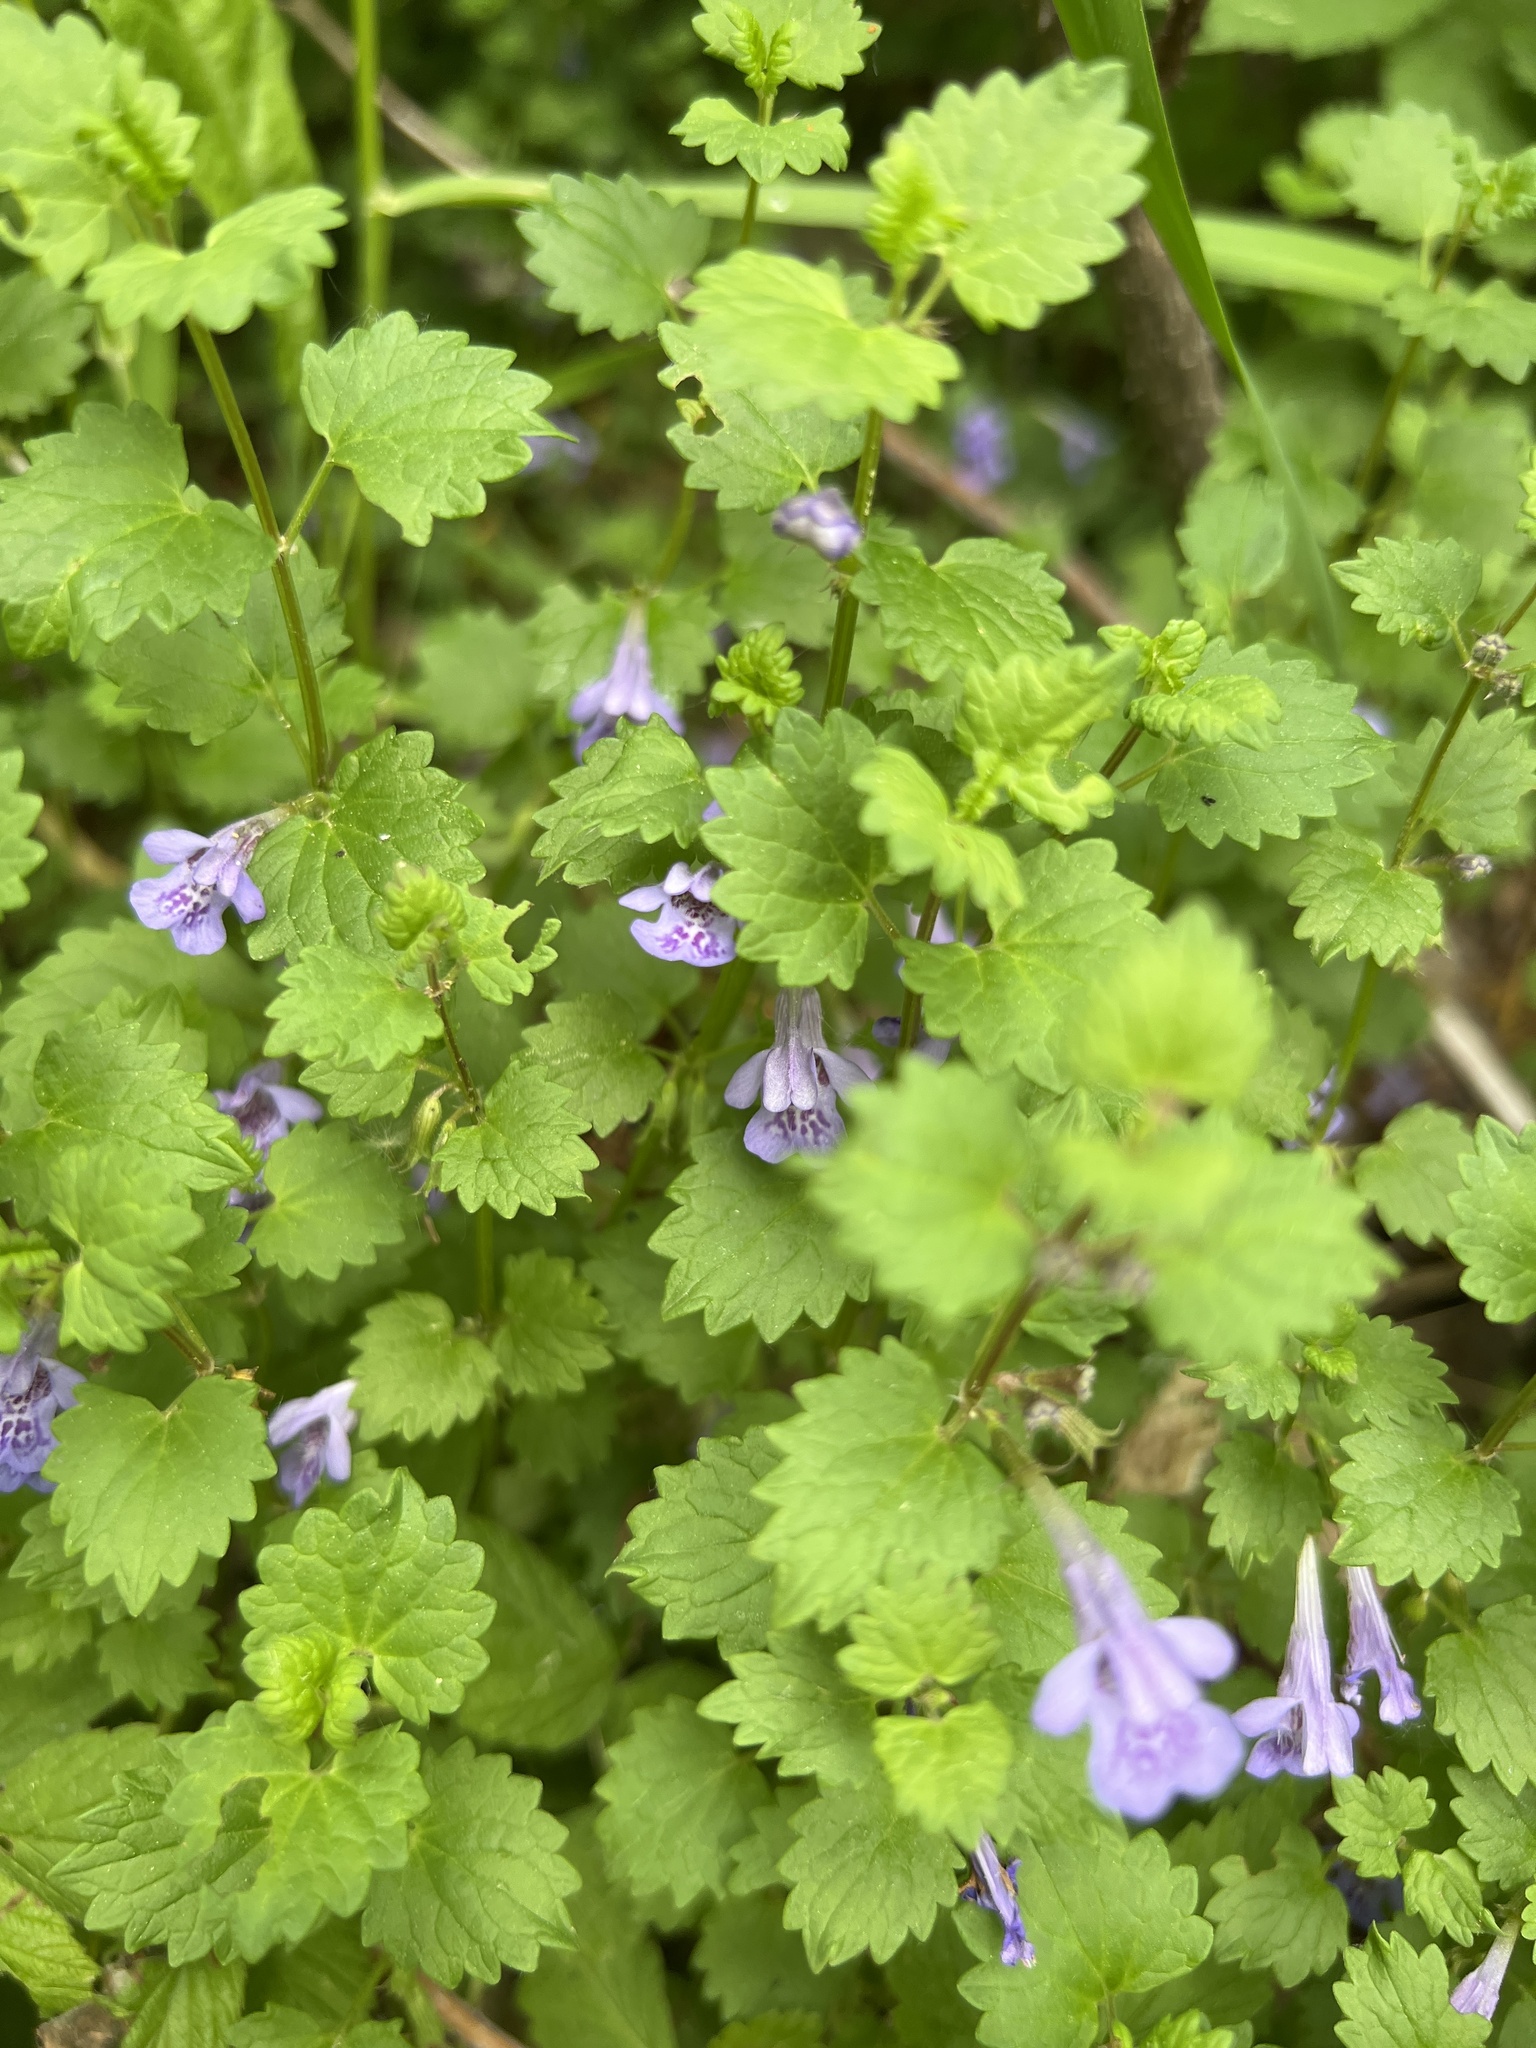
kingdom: Plantae
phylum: Tracheophyta
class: Magnoliopsida
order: Lamiales
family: Lamiaceae
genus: Glechoma
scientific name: Glechoma hederacea
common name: Ground ivy
